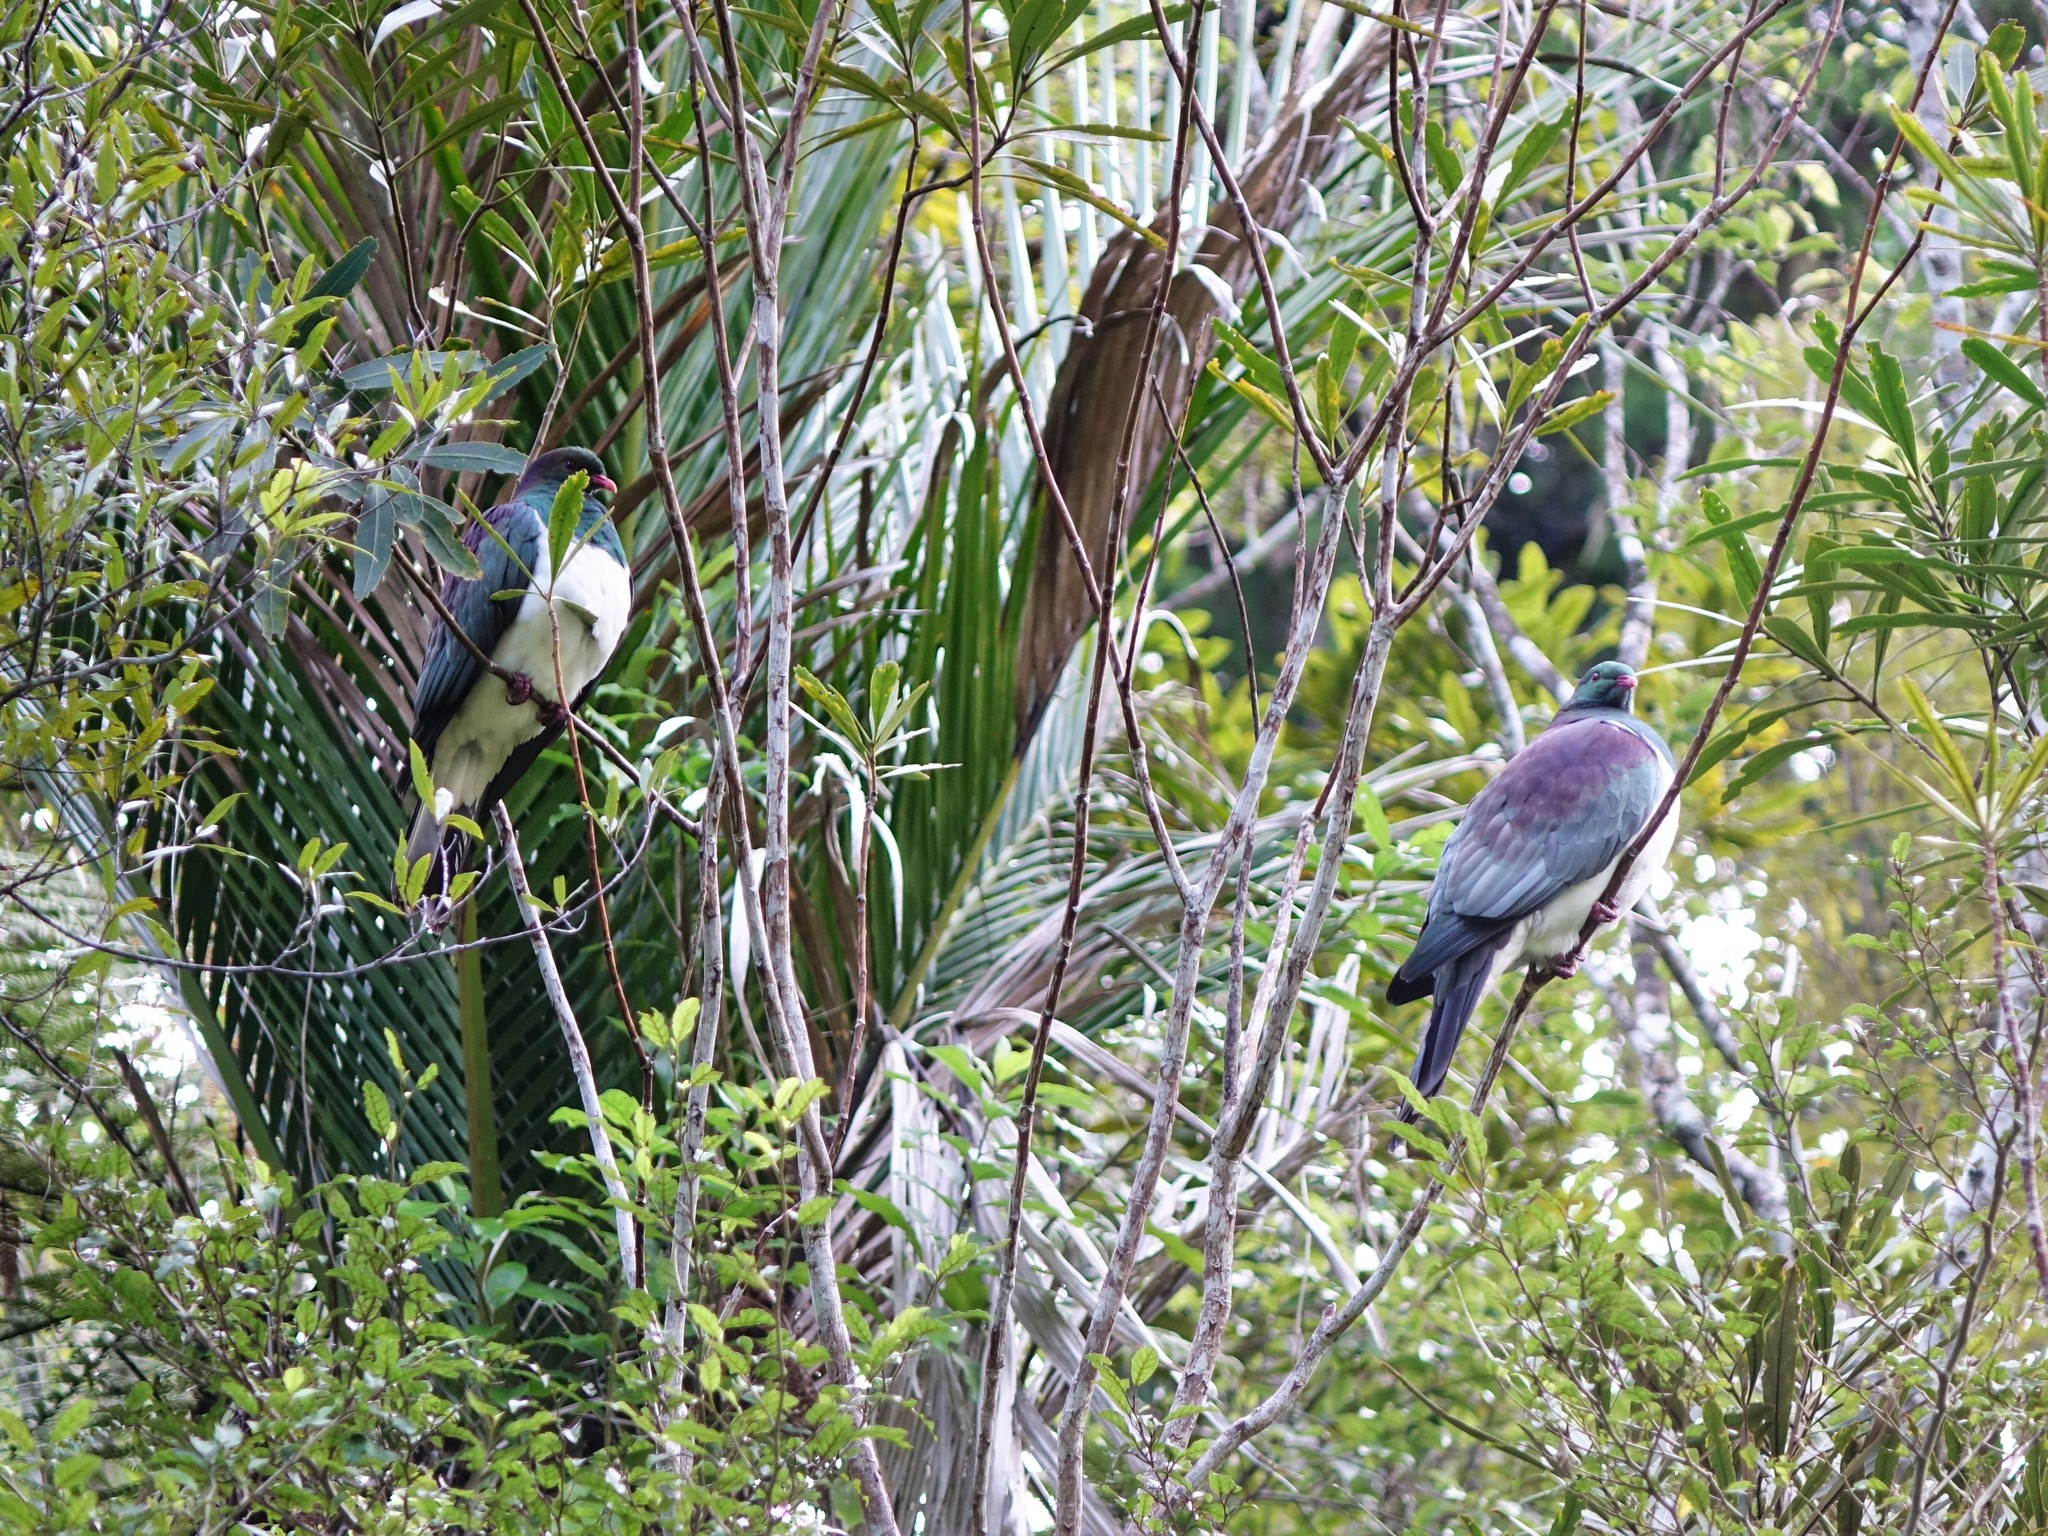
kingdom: Animalia
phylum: Chordata
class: Aves
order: Columbiformes
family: Columbidae
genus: Hemiphaga
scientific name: Hemiphaga novaeseelandiae
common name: New zealand pigeon
